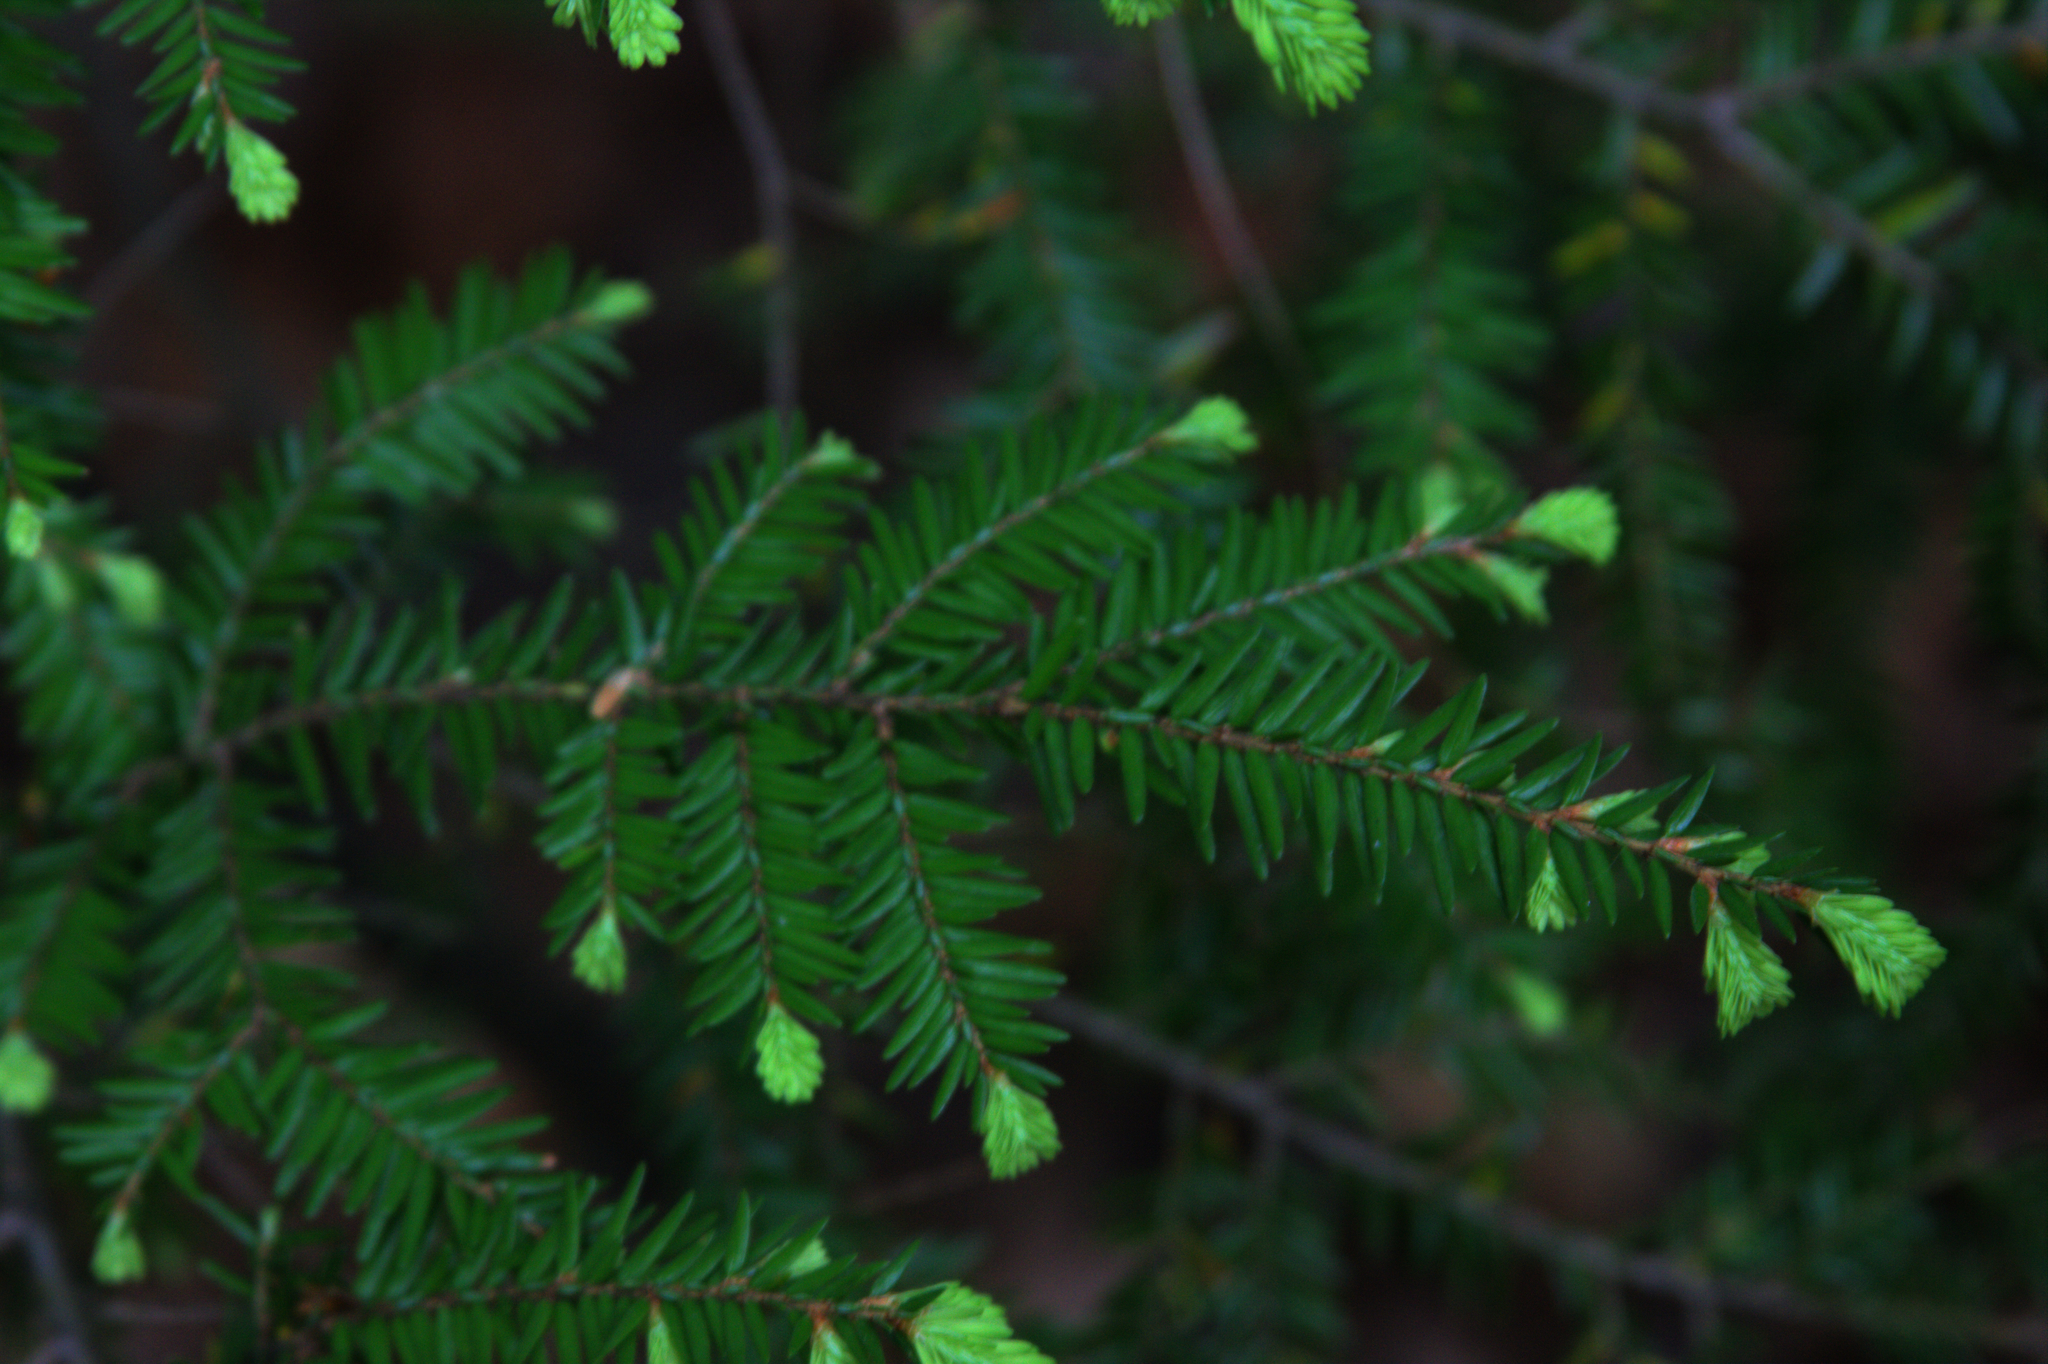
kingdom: Plantae
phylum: Tracheophyta
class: Pinopsida
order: Pinales
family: Pinaceae
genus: Tsuga
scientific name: Tsuga canadensis
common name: Eastern hemlock
